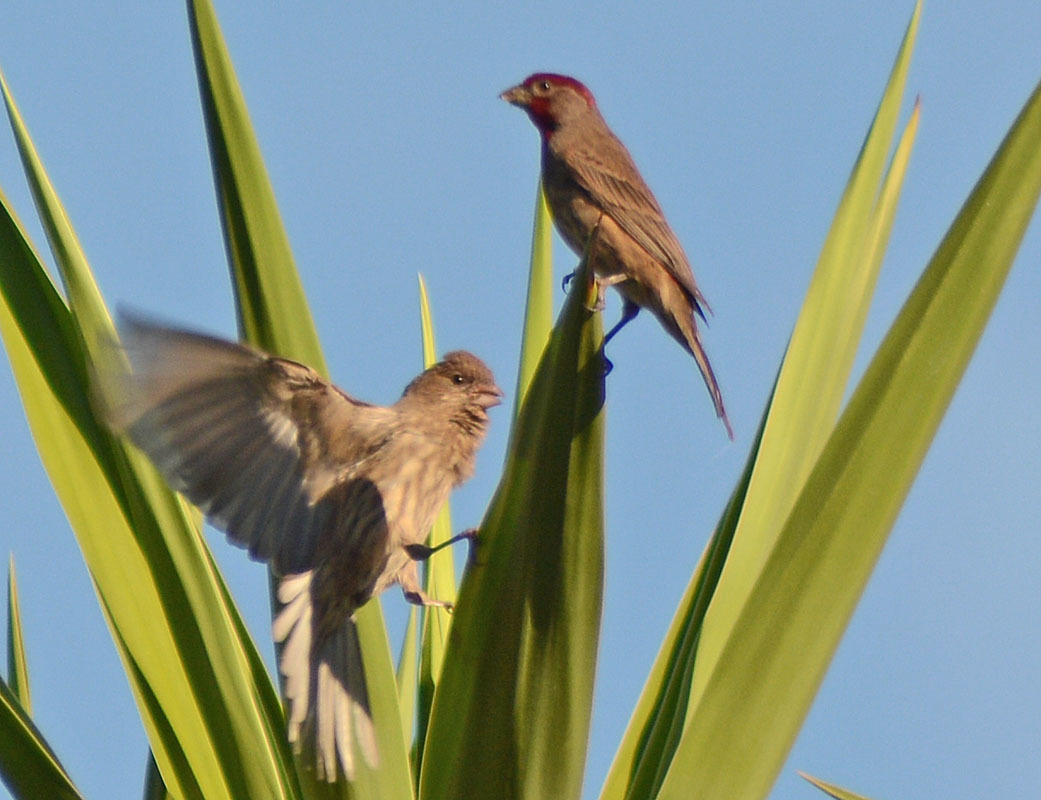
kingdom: Animalia
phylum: Chordata
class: Aves
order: Passeriformes
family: Fringillidae
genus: Haemorhous
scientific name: Haemorhous mexicanus
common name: House finch
